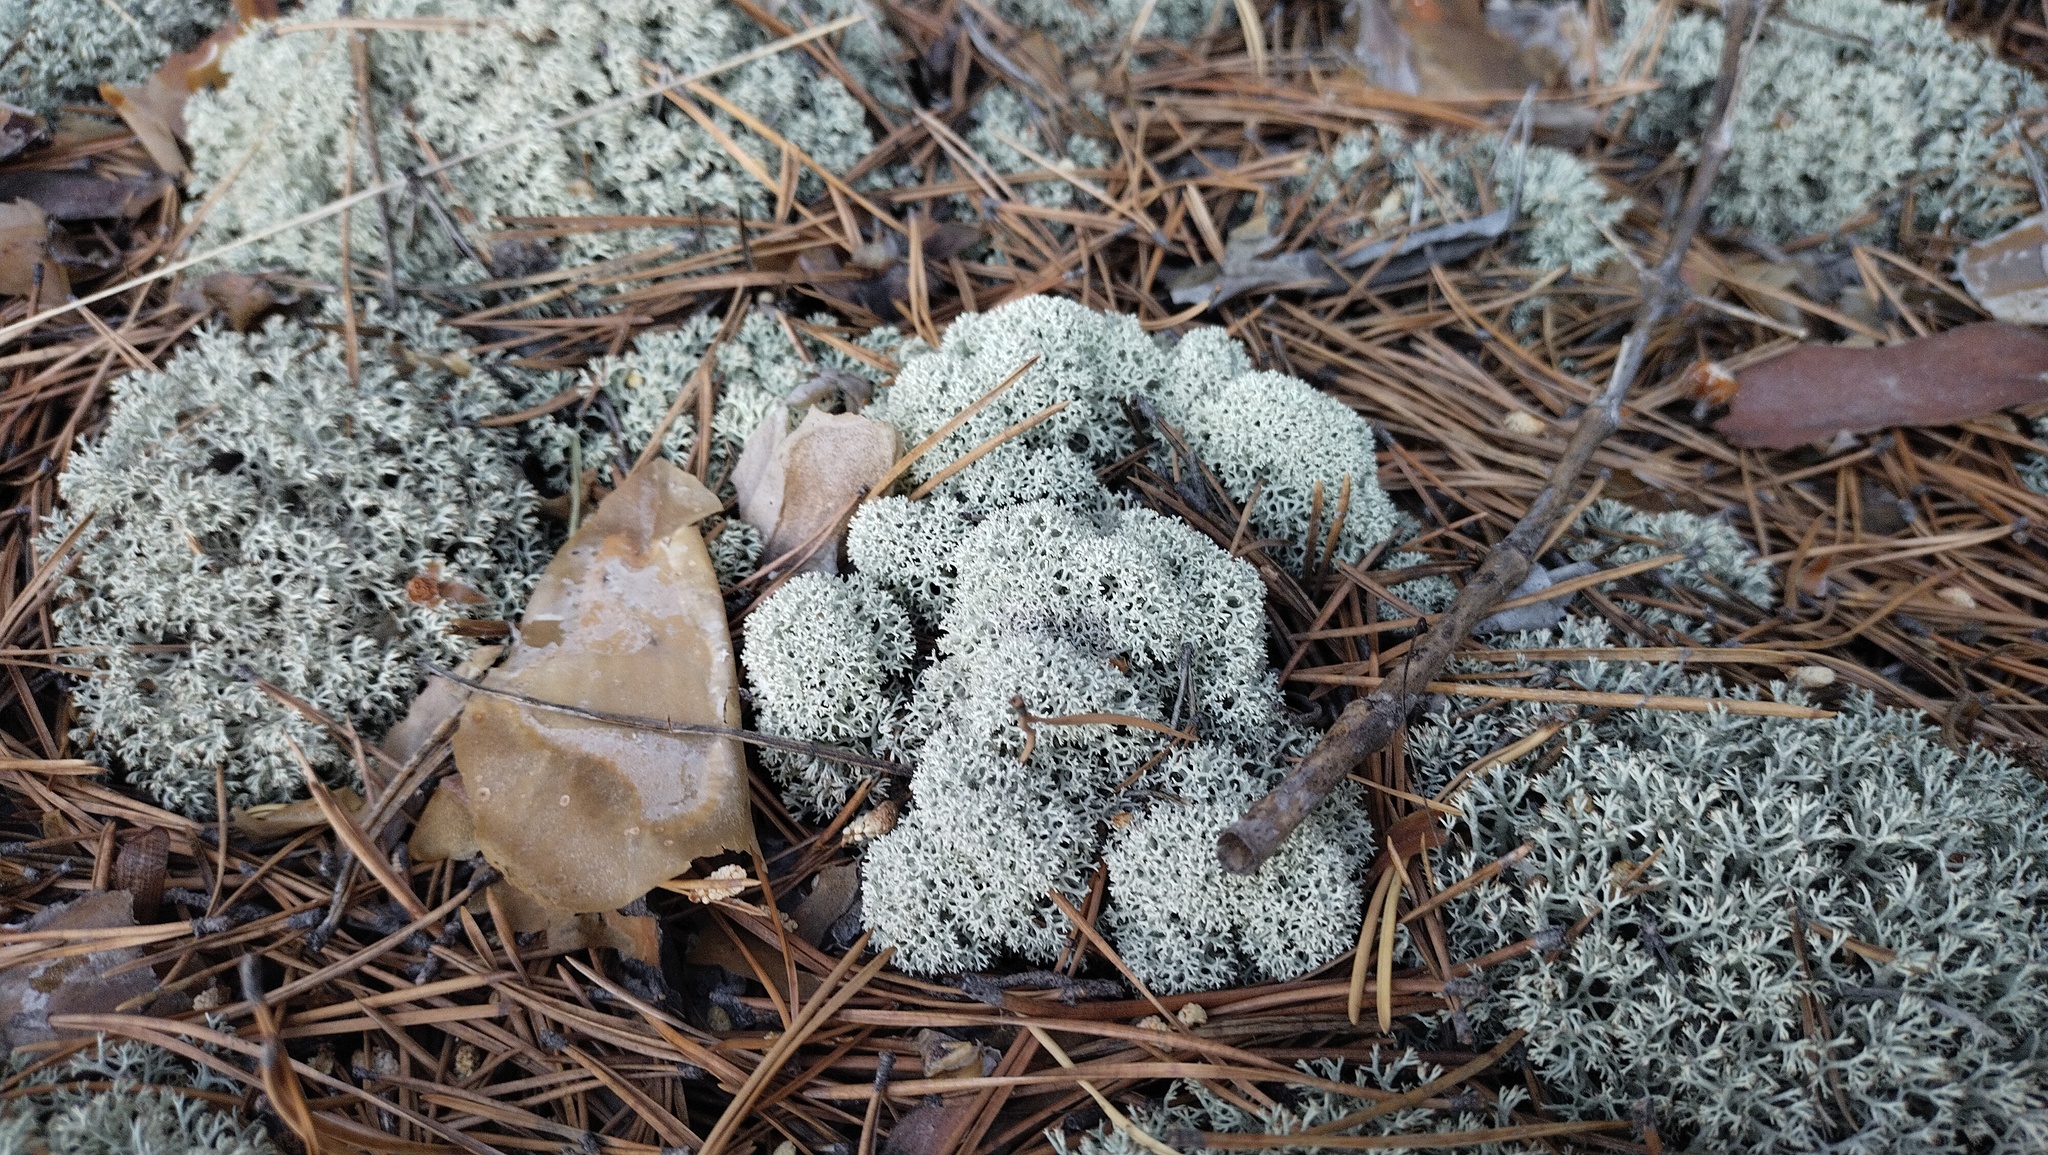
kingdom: Fungi
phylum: Ascomycota
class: Lecanoromycetes
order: Lecanorales
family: Cladoniaceae
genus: Cladonia
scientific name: Cladonia stellaris
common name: Star-tipped reindeer lichen
